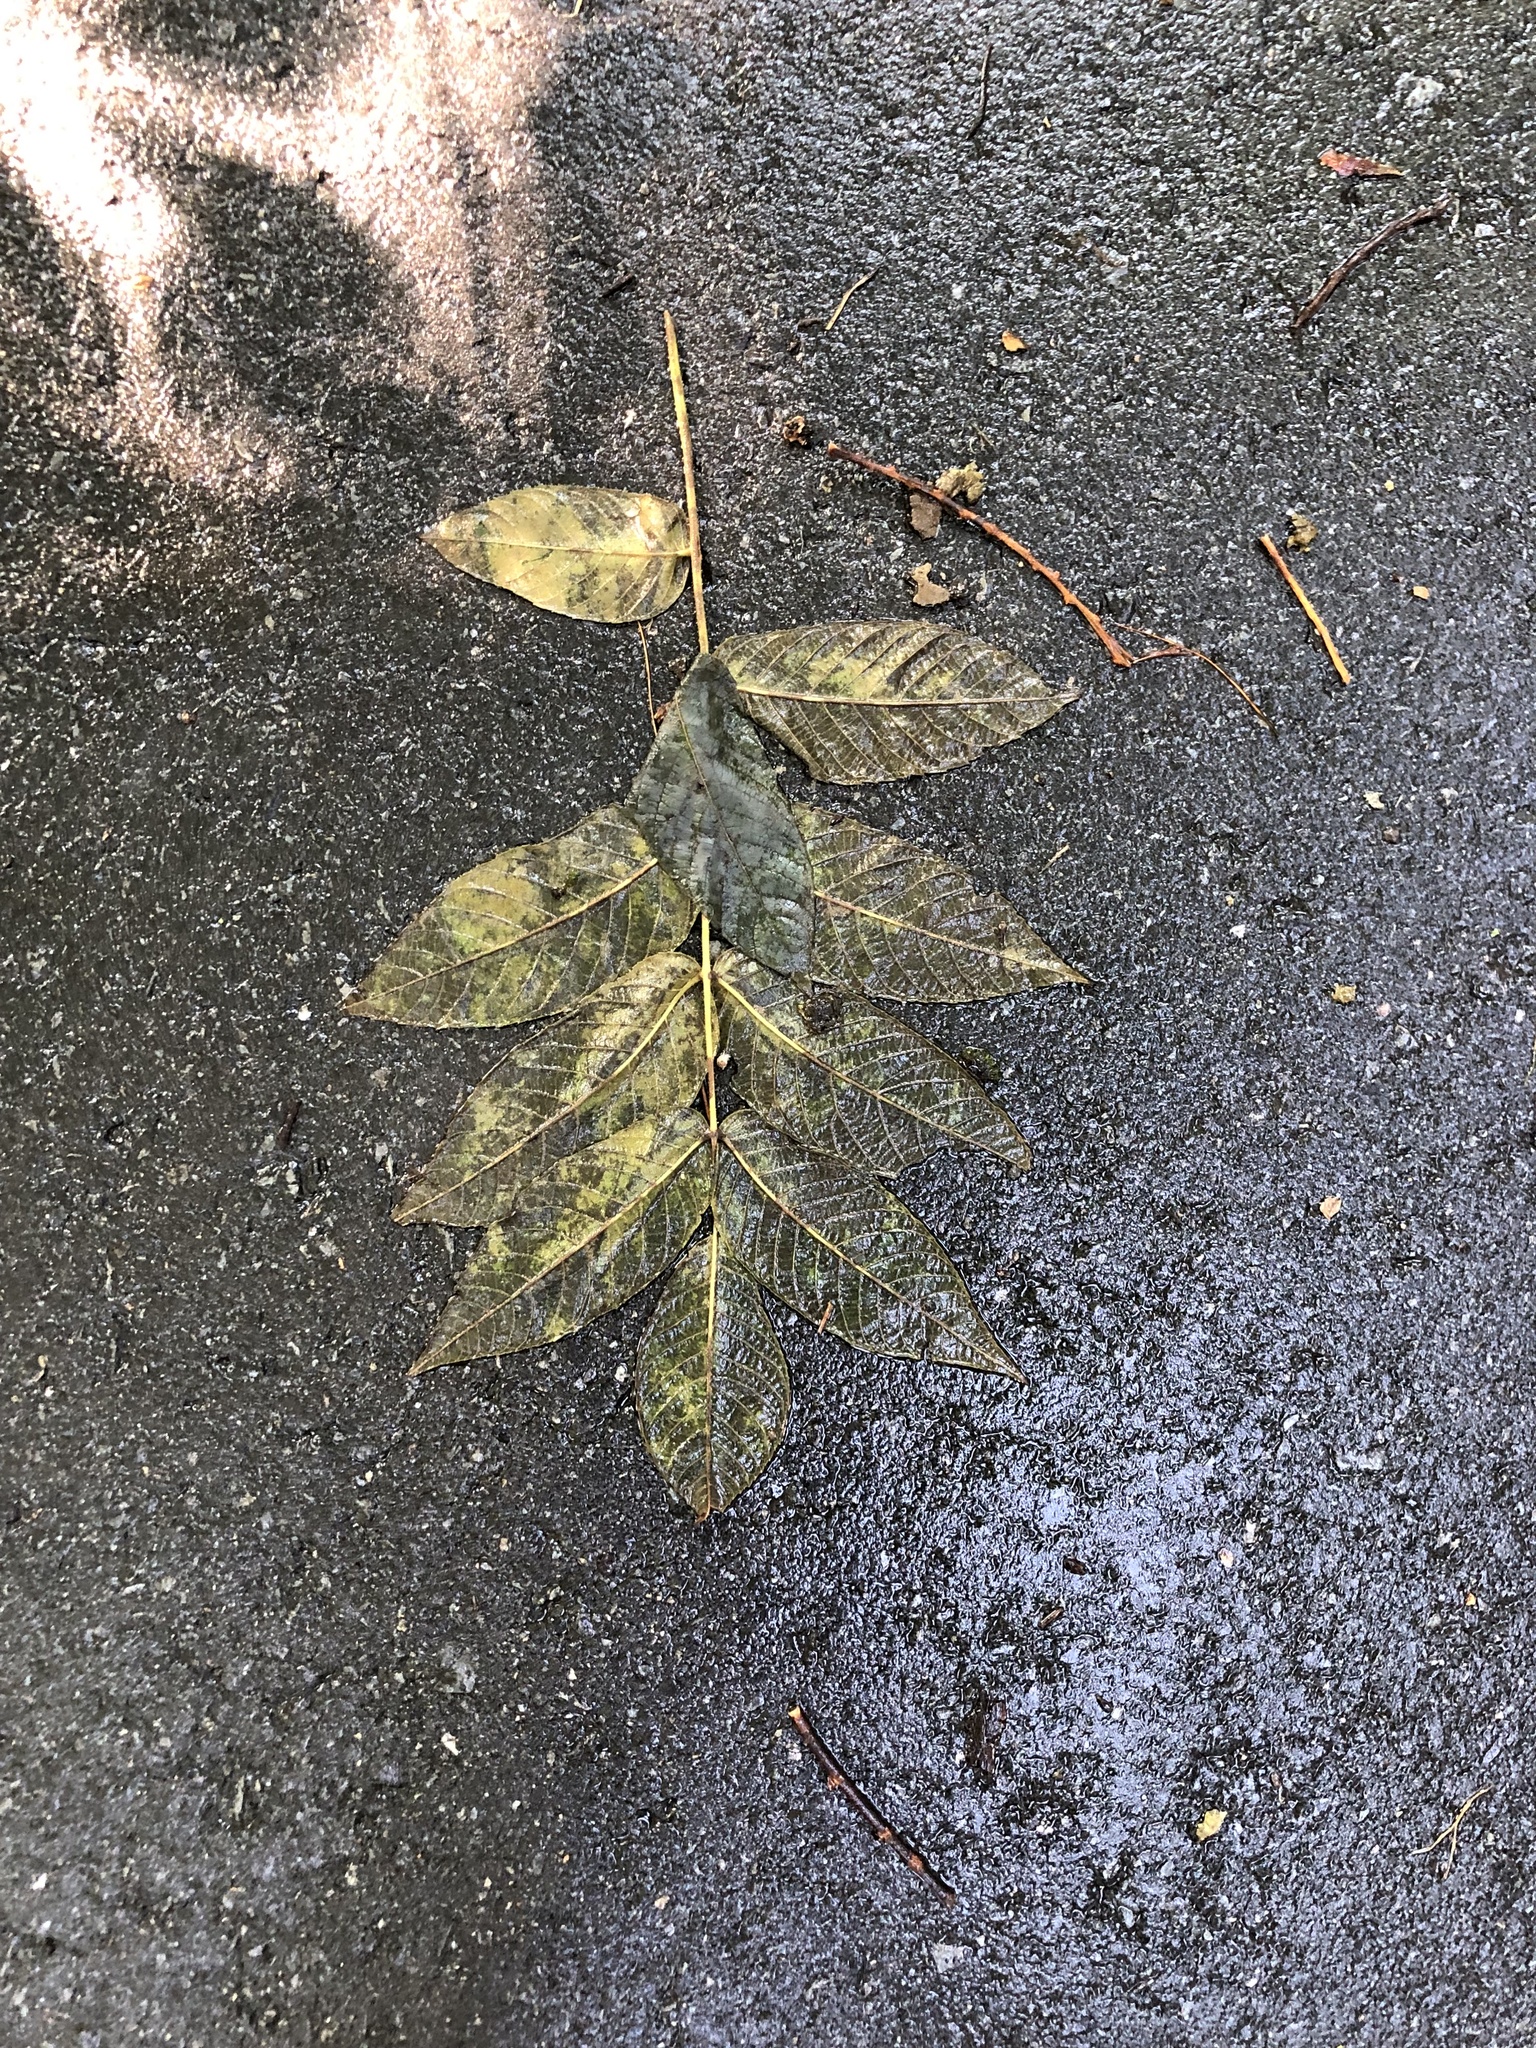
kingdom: Plantae
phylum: Tracheophyta
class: Magnoliopsida
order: Fagales
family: Juglandaceae
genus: Juglans
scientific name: Juglans cinerea
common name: Butternut
